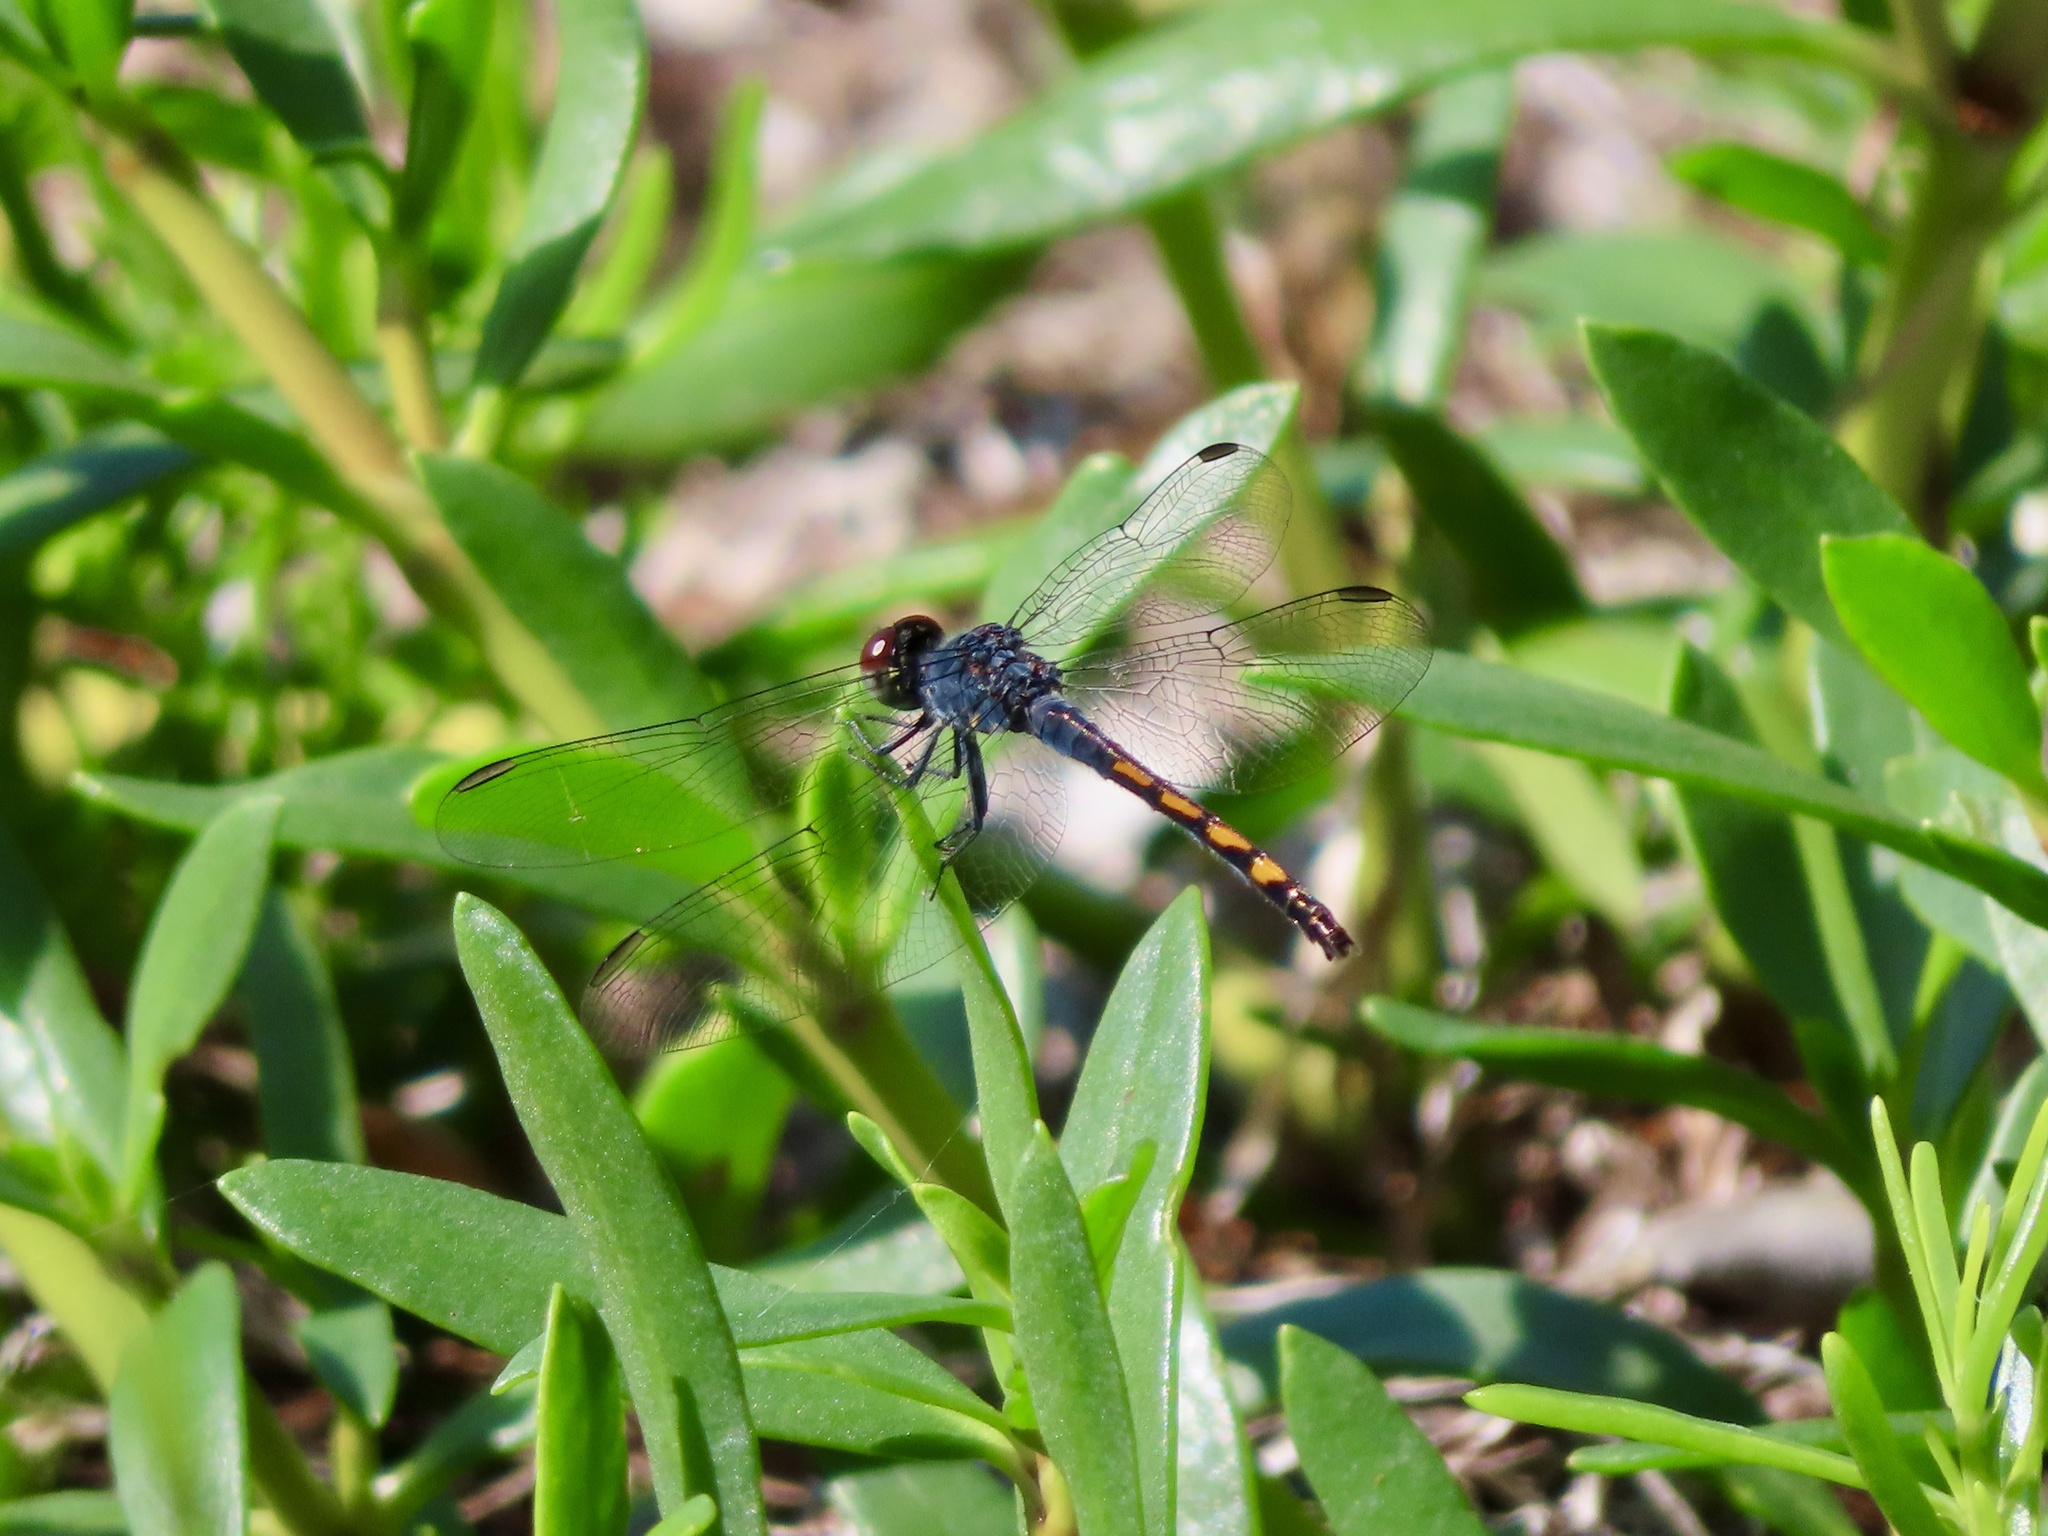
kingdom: Animalia
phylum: Arthropoda
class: Insecta
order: Odonata
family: Libellulidae
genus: Erythrodiplax
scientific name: Erythrodiplax berenice
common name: Seaside dragonlet
